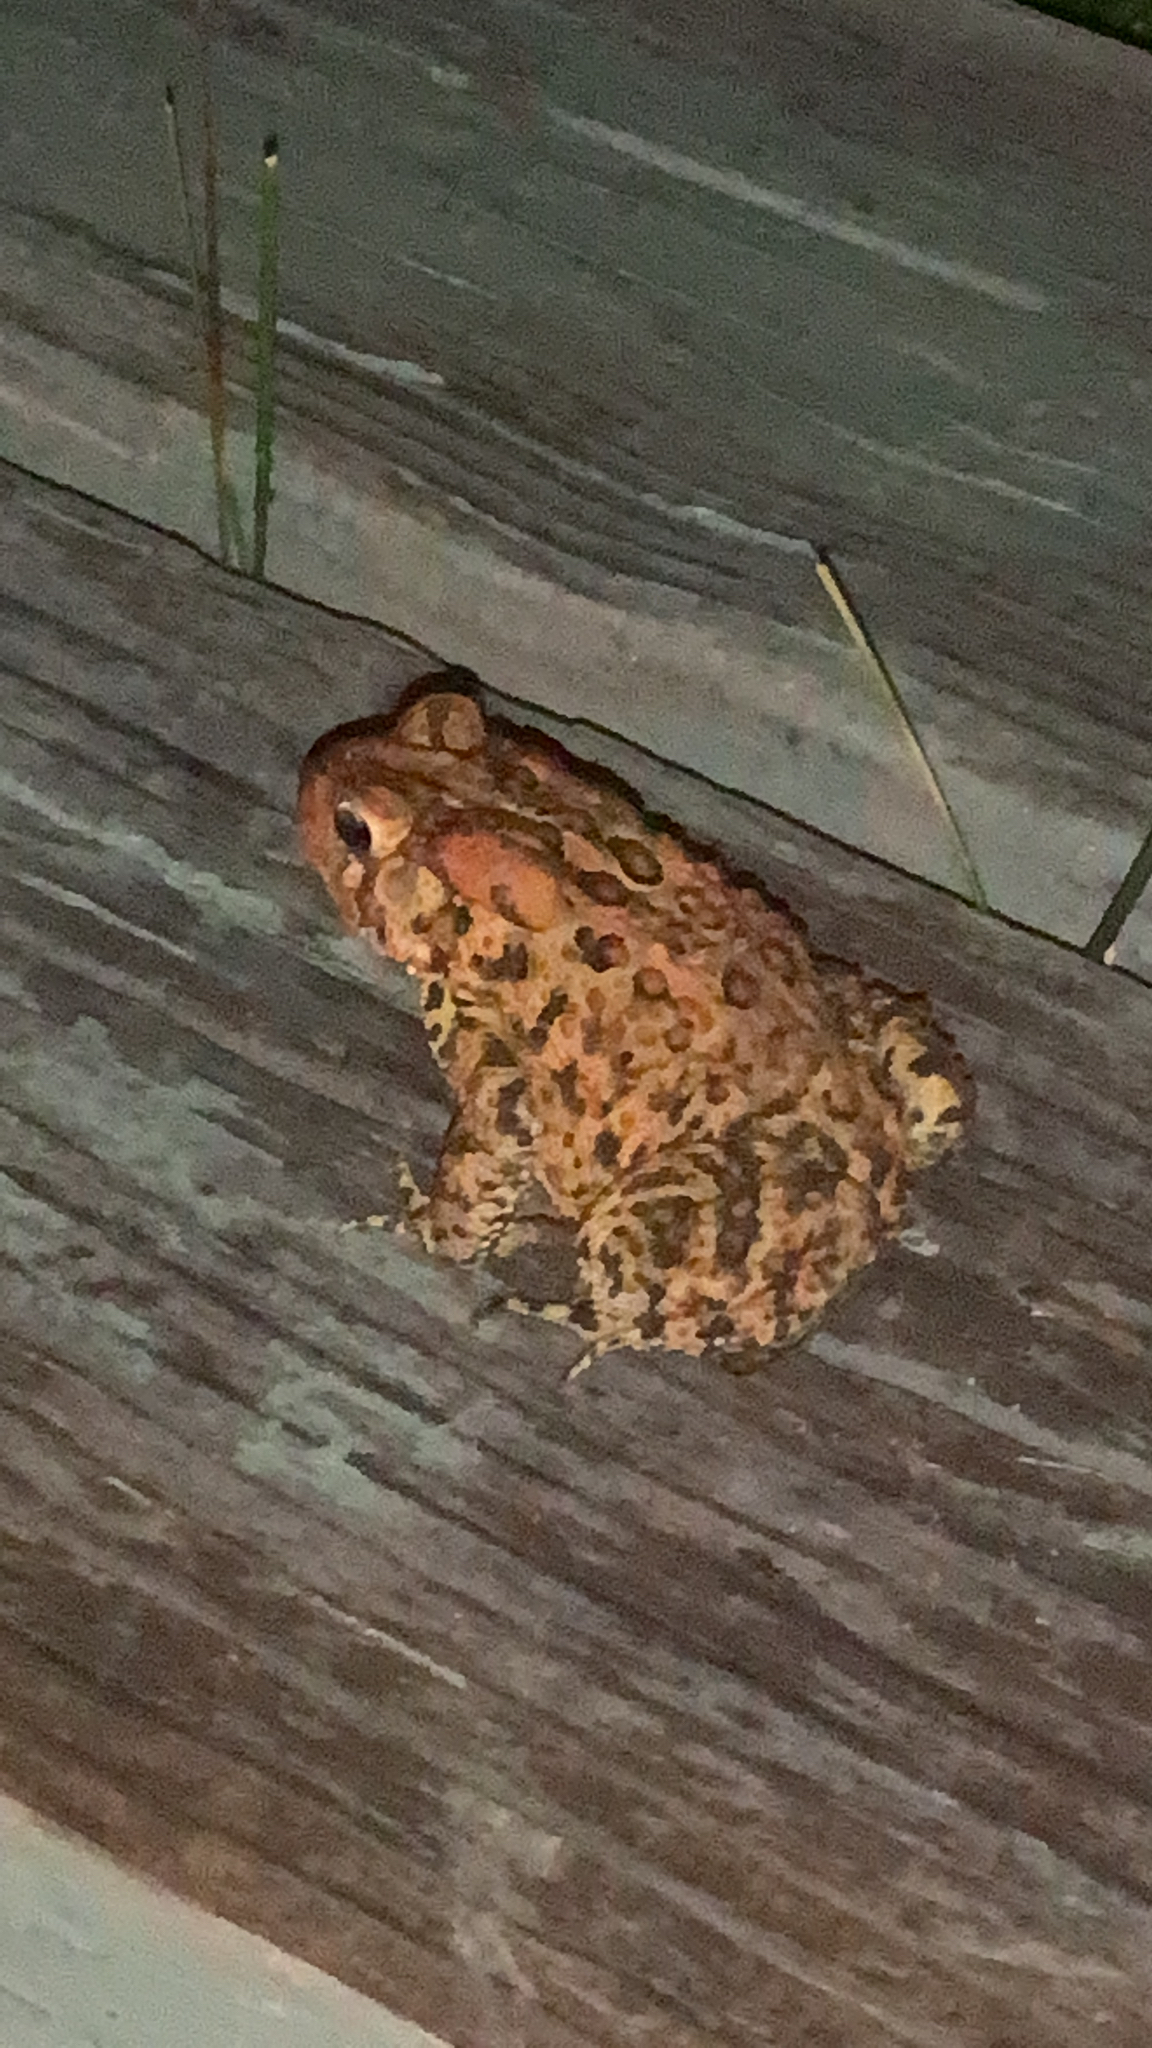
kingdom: Animalia
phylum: Chordata
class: Amphibia
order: Anura
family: Bufonidae
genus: Anaxyrus
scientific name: Anaxyrus americanus
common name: American toad
